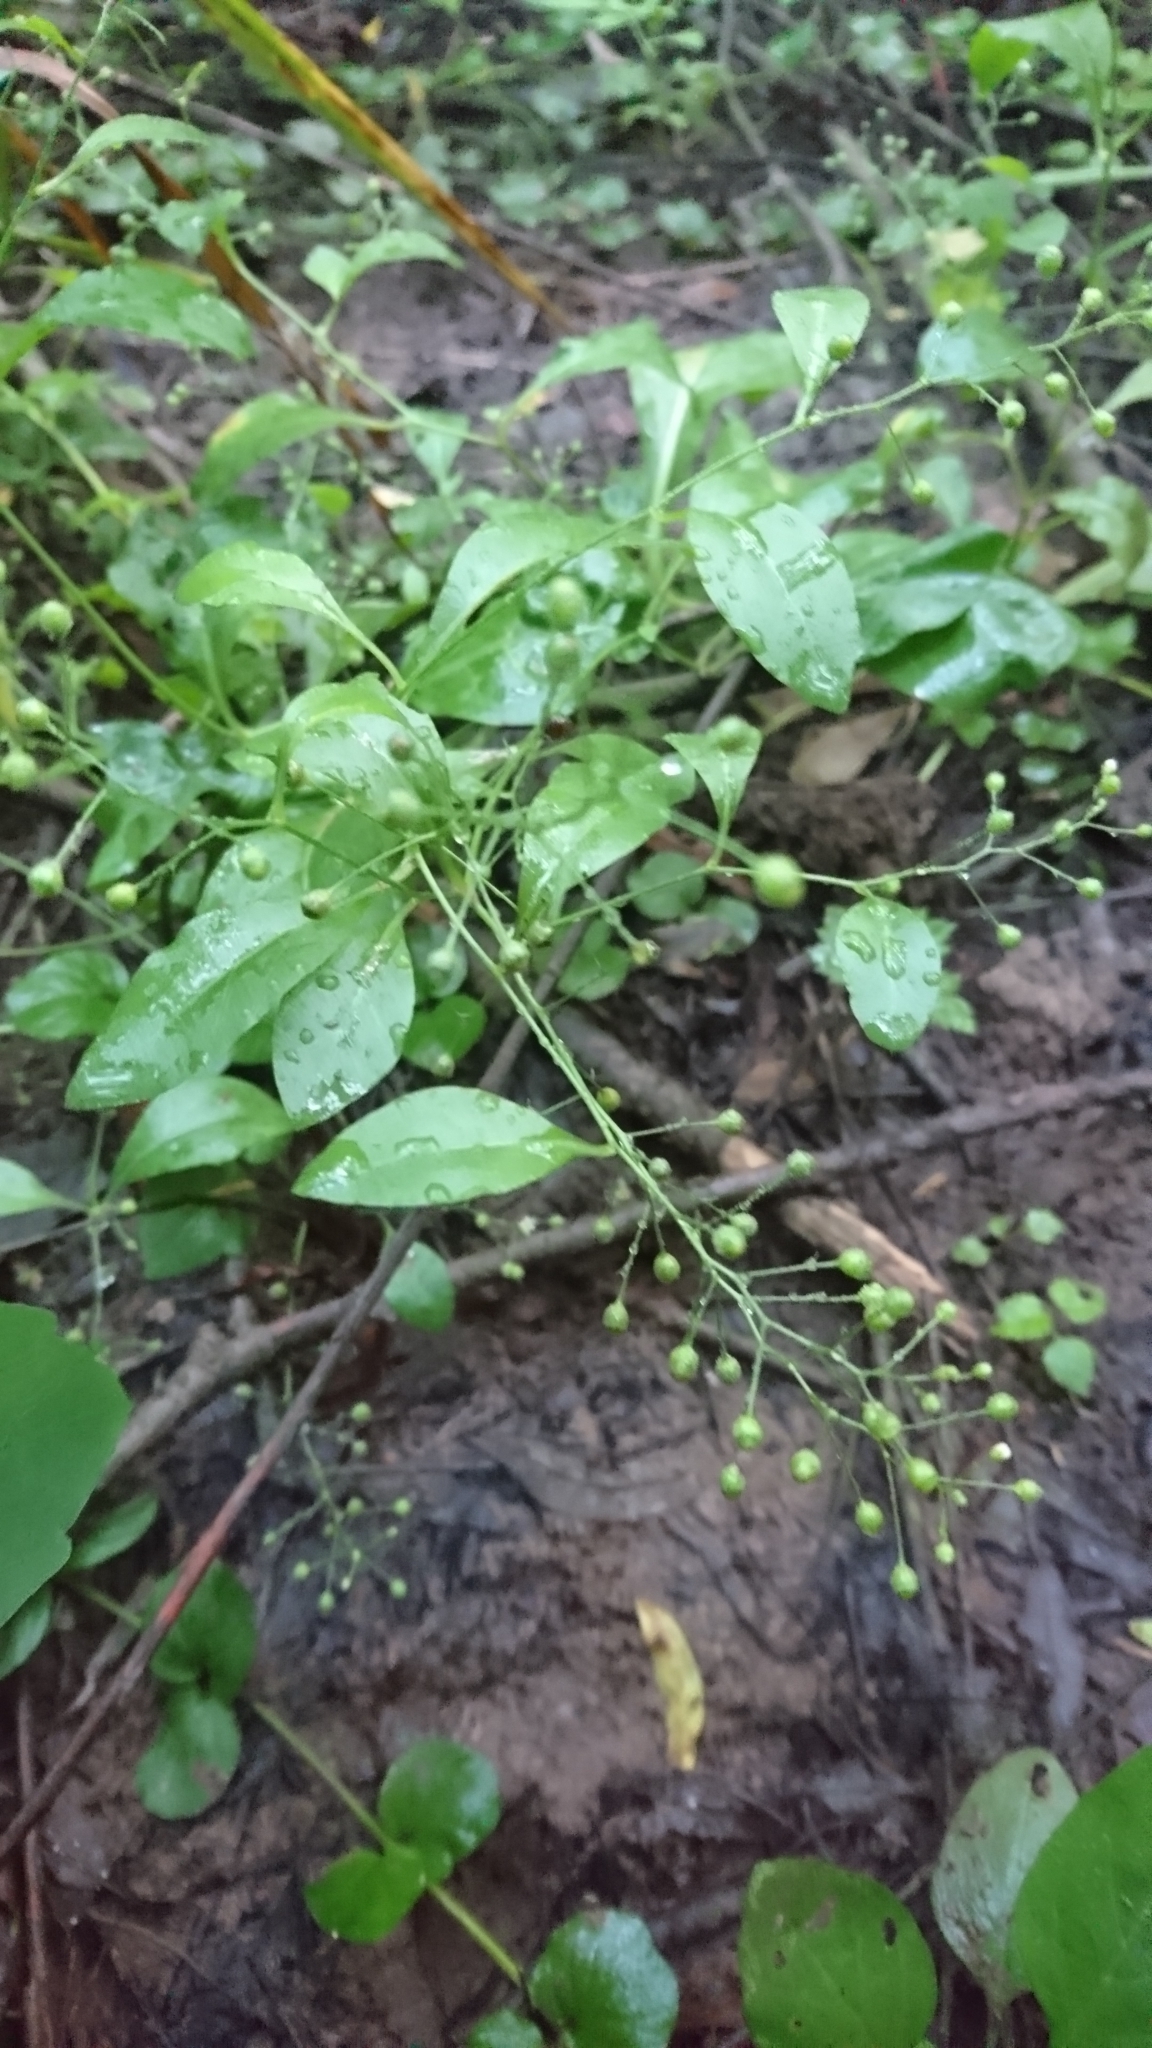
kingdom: Plantae
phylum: Tracheophyta
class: Magnoliopsida
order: Ericales
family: Primulaceae
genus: Samolus
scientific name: Samolus parviflorus
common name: False water pimpernel
